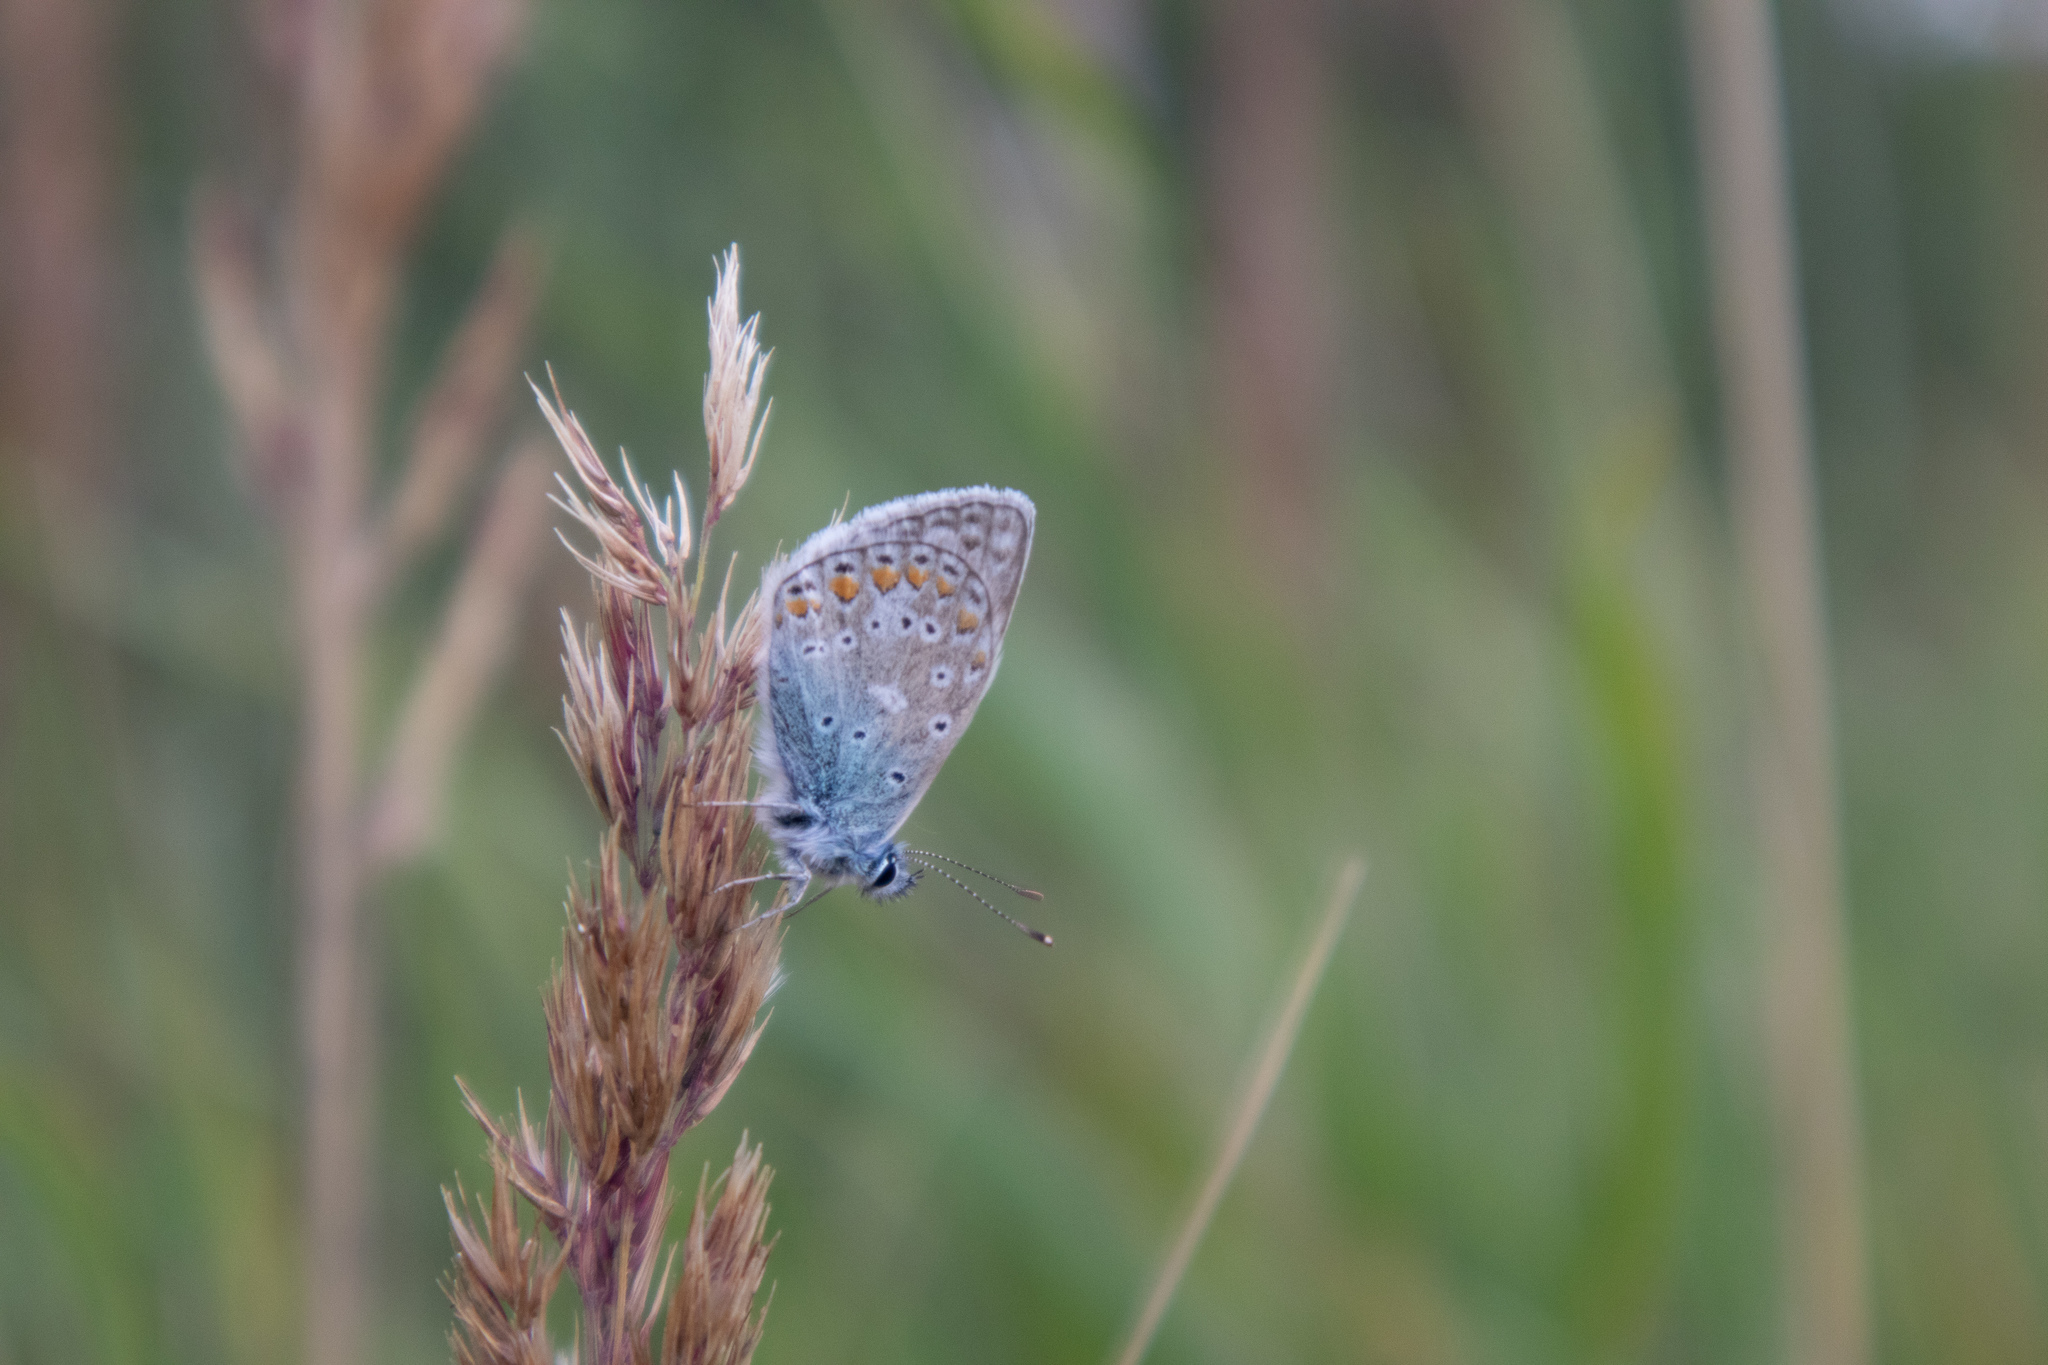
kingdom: Animalia
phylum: Arthropoda
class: Insecta
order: Lepidoptera
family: Lycaenidae
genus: Polyommatus
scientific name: Polyommatus icarus
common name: Common blue
